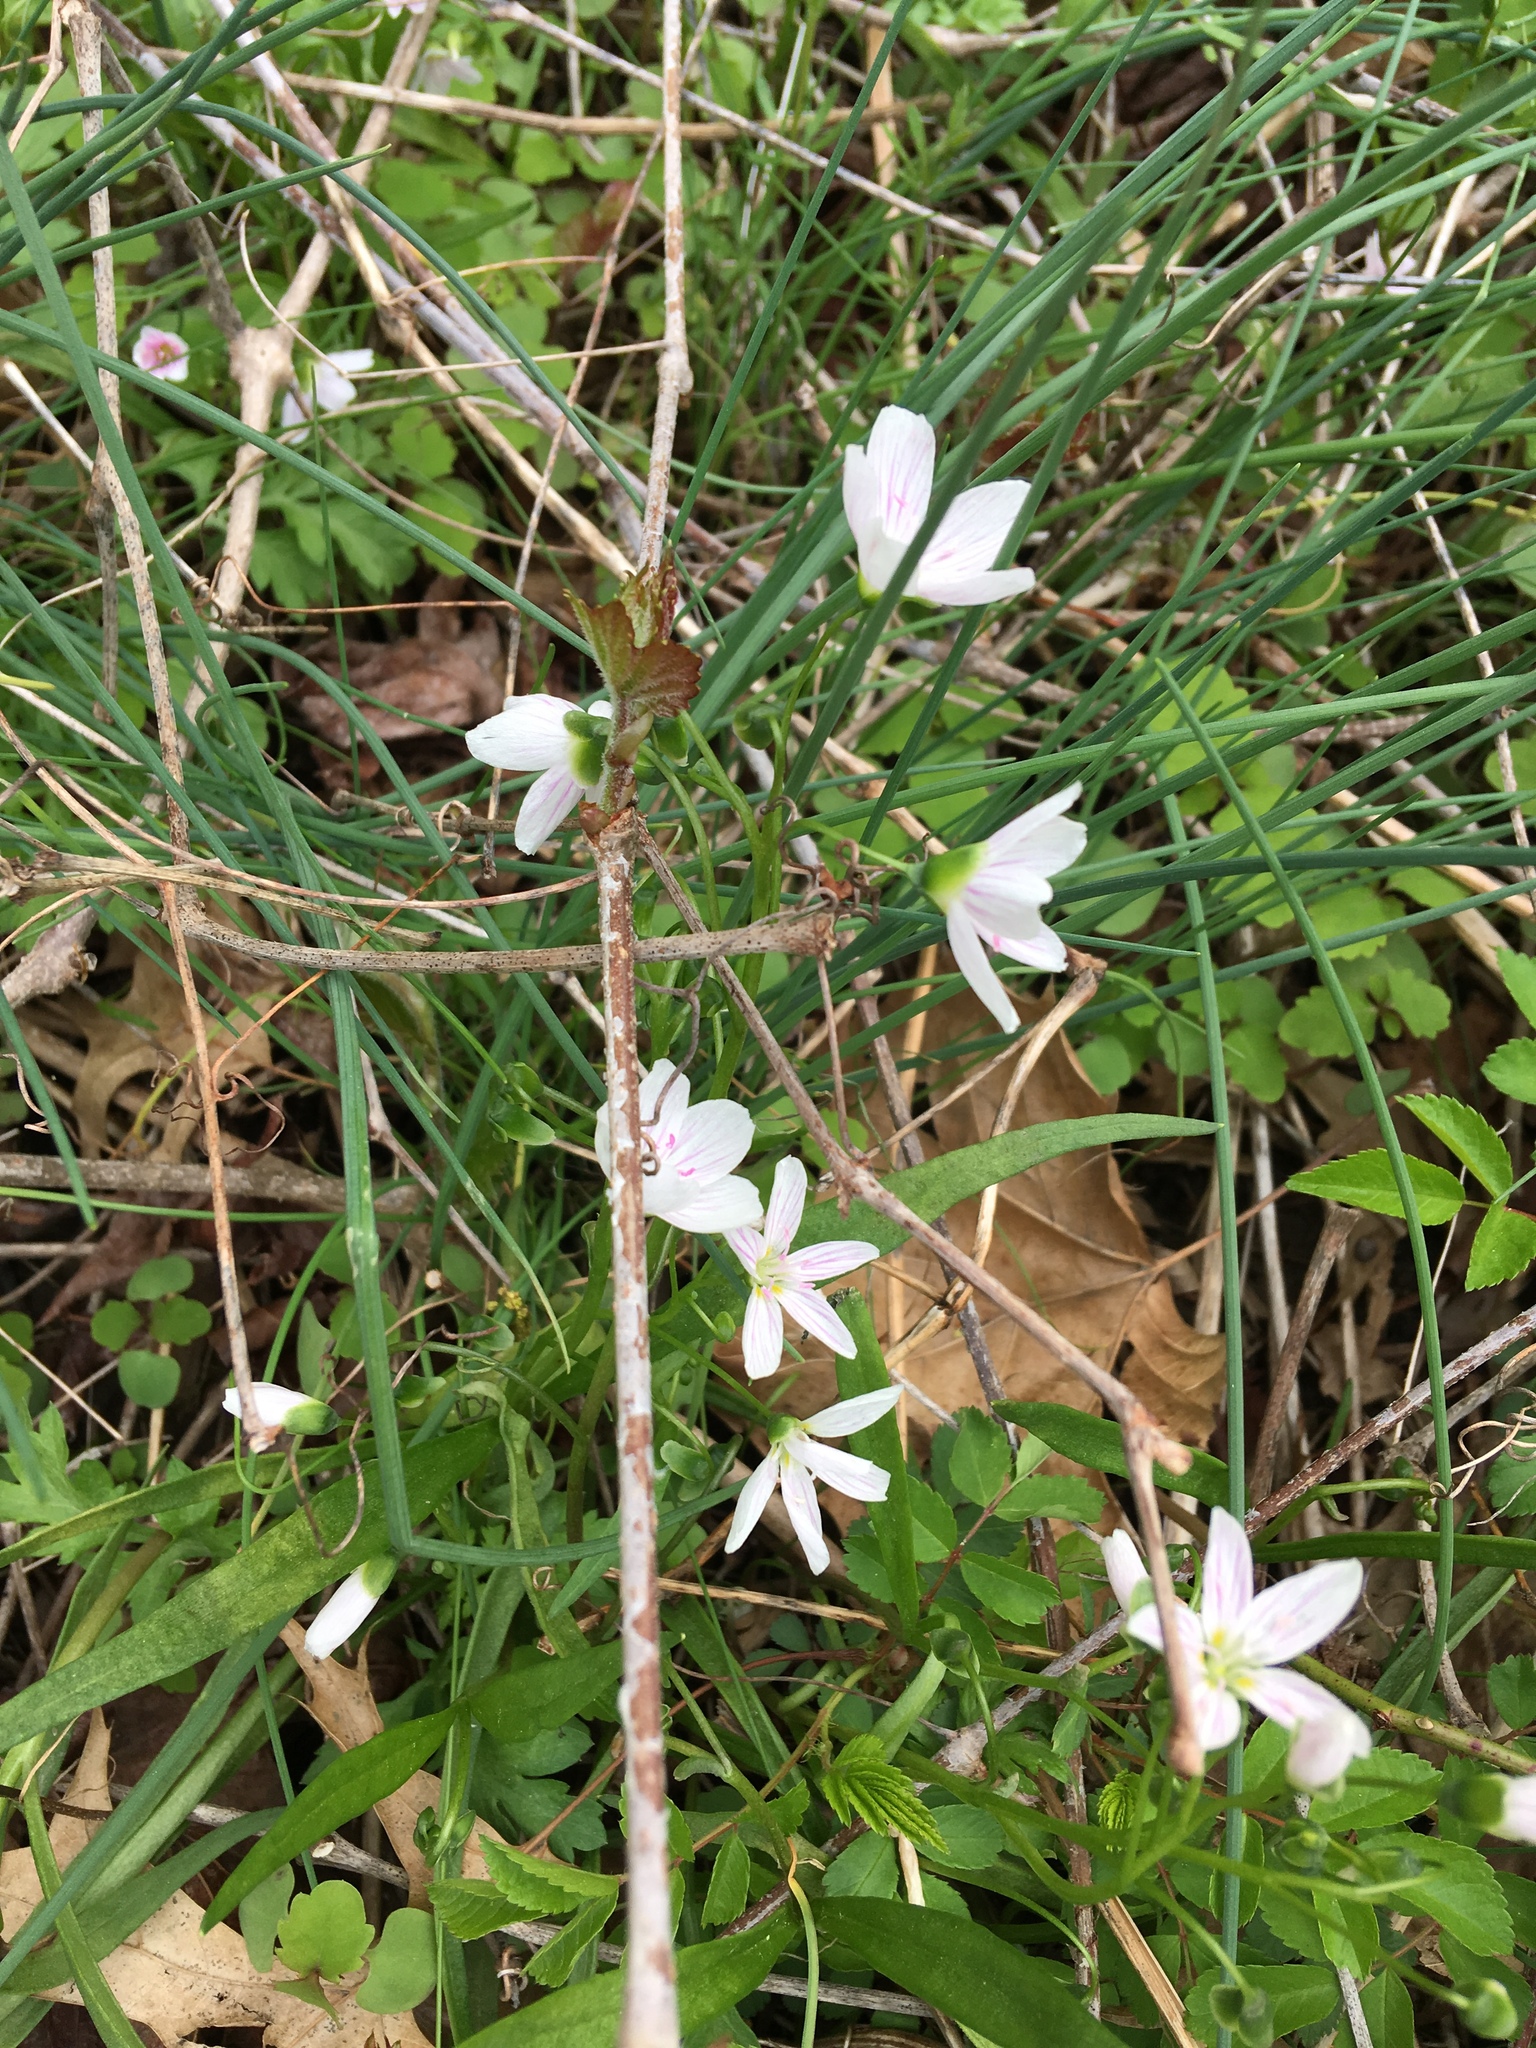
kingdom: Plantae
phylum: Tracheophyta
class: Magnoliopsida
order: Caryophyllales
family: Montiaceae
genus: Claytonia
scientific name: Claytonia virginica
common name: Virginia springbeauty
